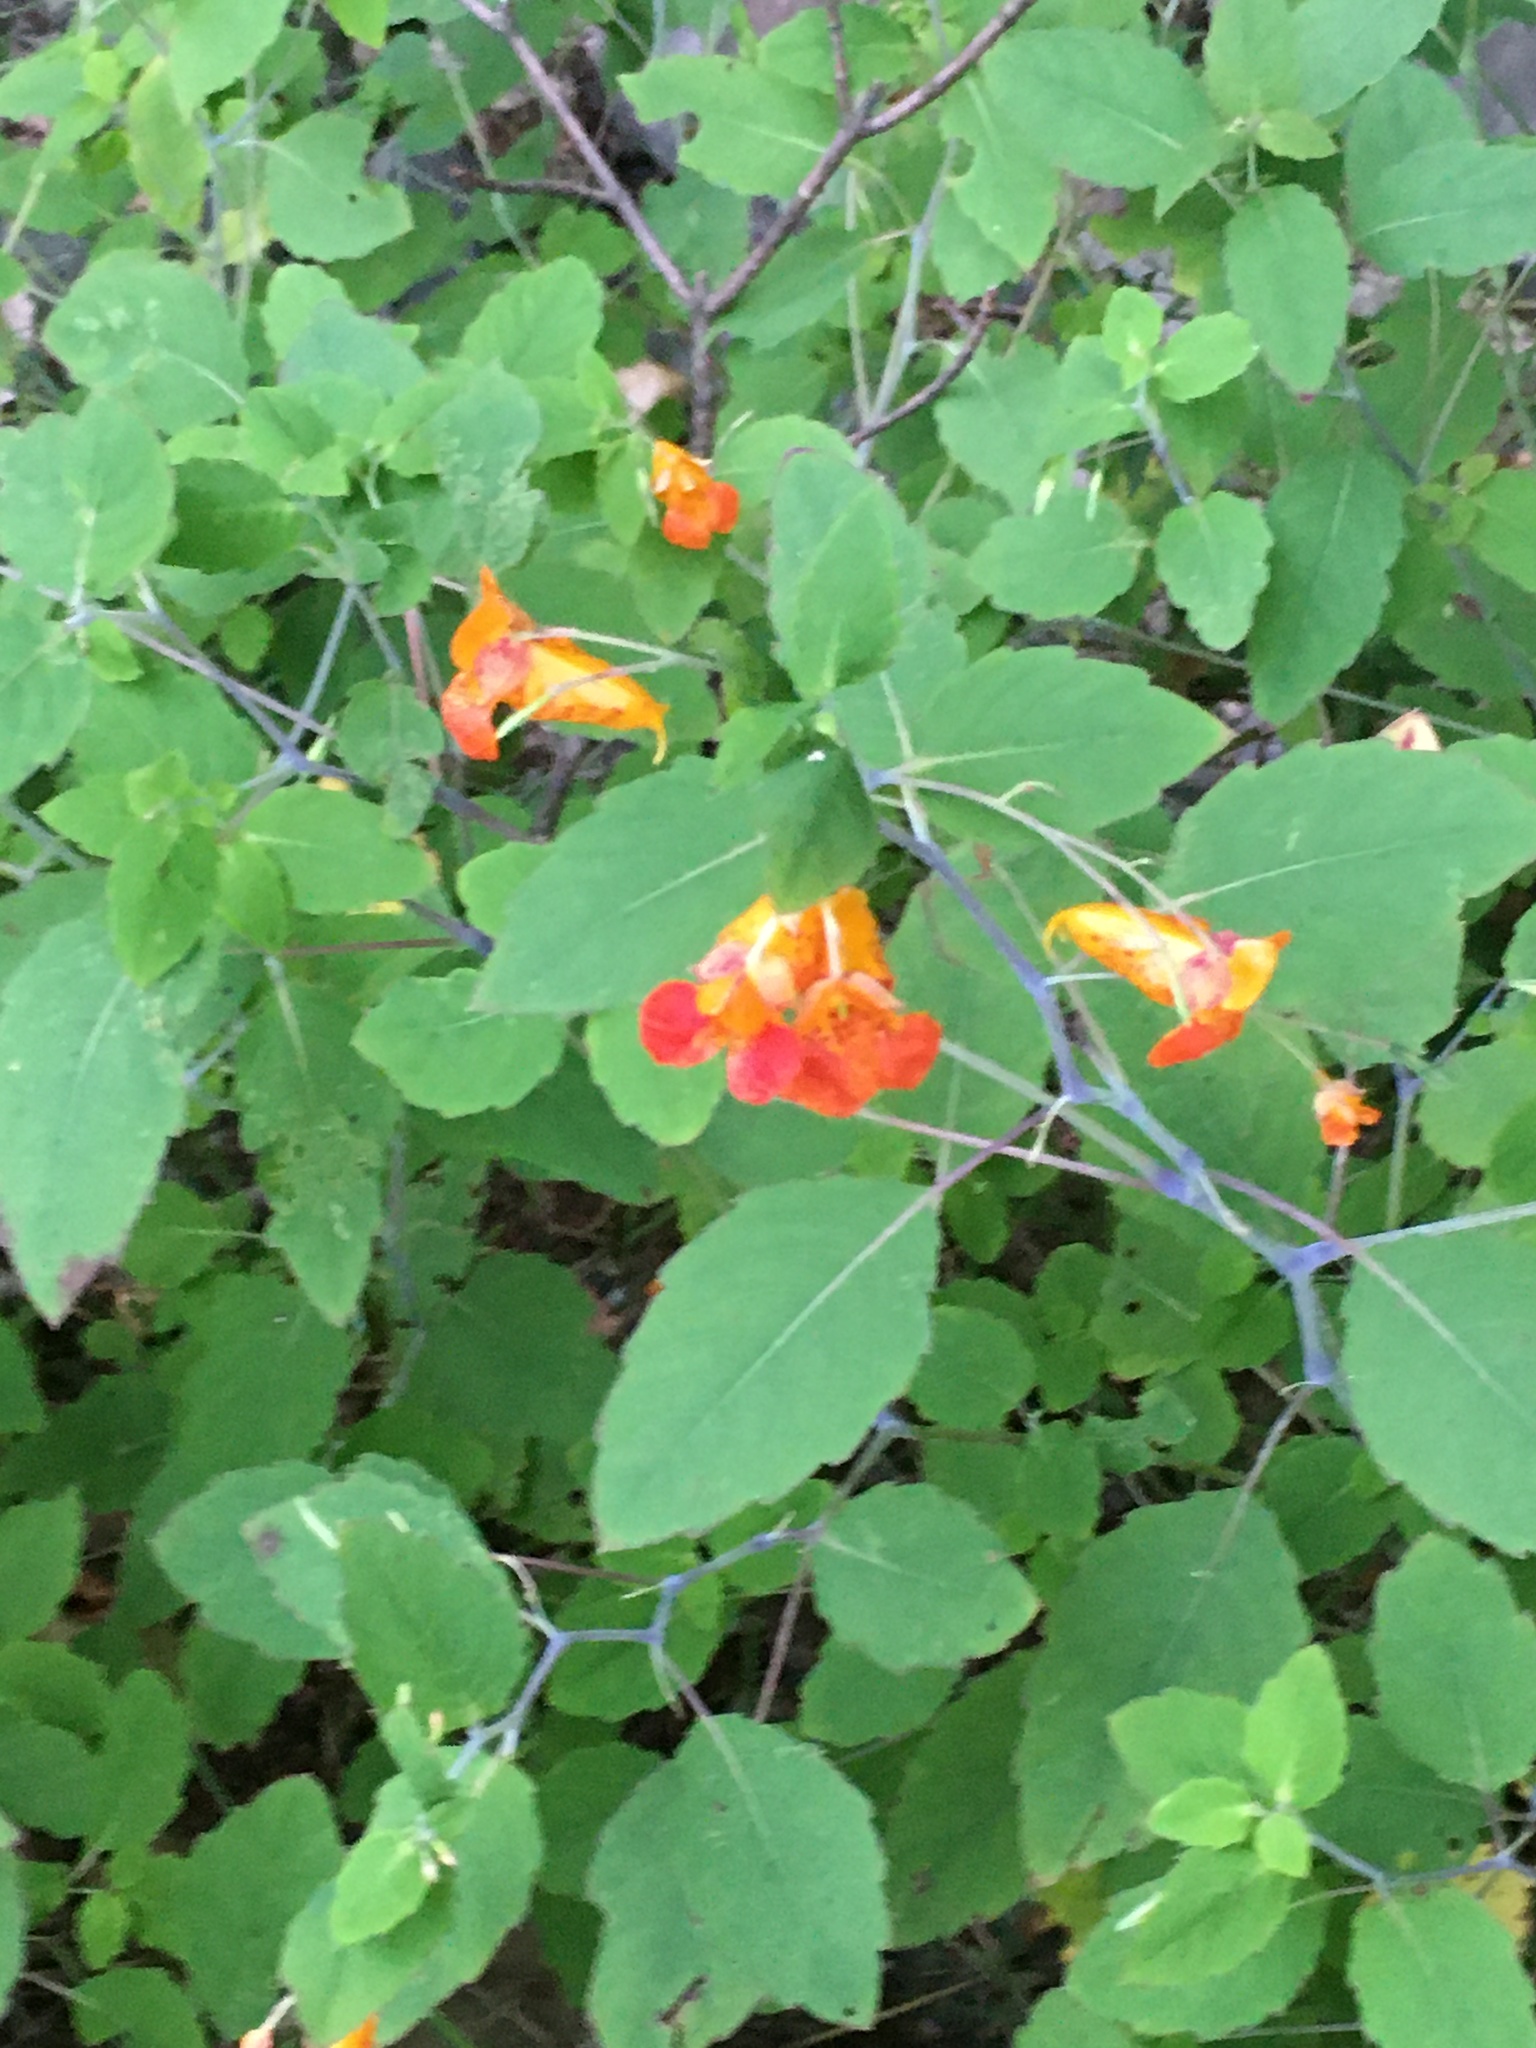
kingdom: Plantae
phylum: Tracheophyta
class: Magnoliopsida
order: Ericales
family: Balsaminaceae
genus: Impatiens
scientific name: Impatiens capensis
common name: Orange balsam
